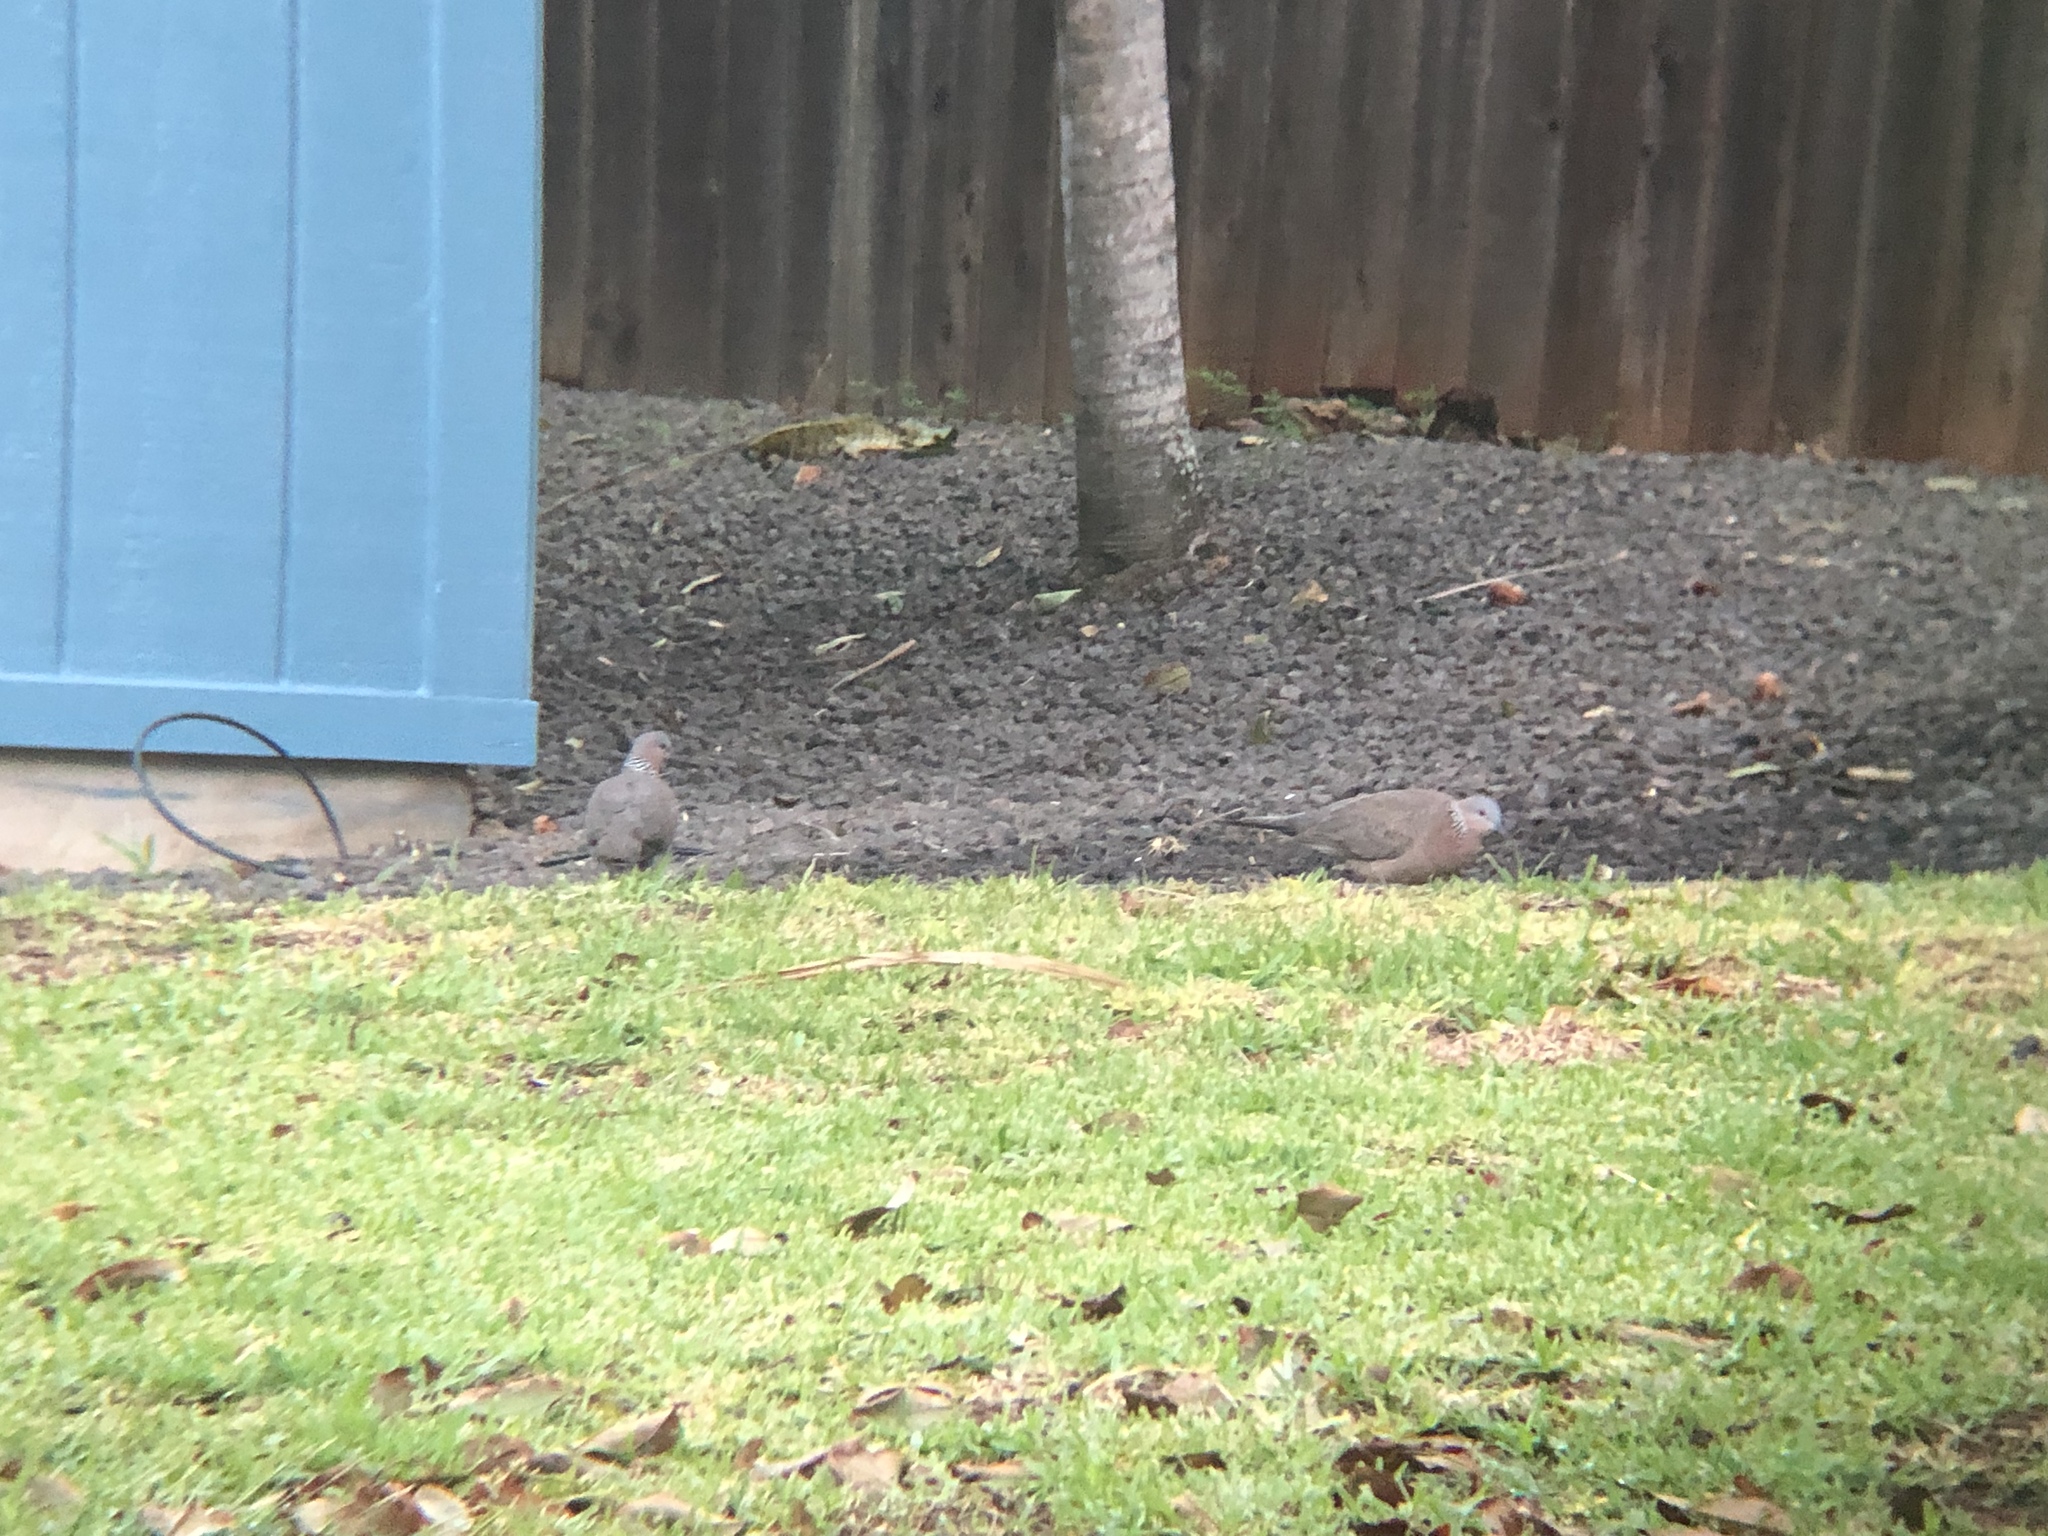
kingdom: Animalia
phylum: Chordata
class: Aves
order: Columbiformes
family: Columbidae
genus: Spilopelia
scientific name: Spilopelia chinensis
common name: Spotted dove
